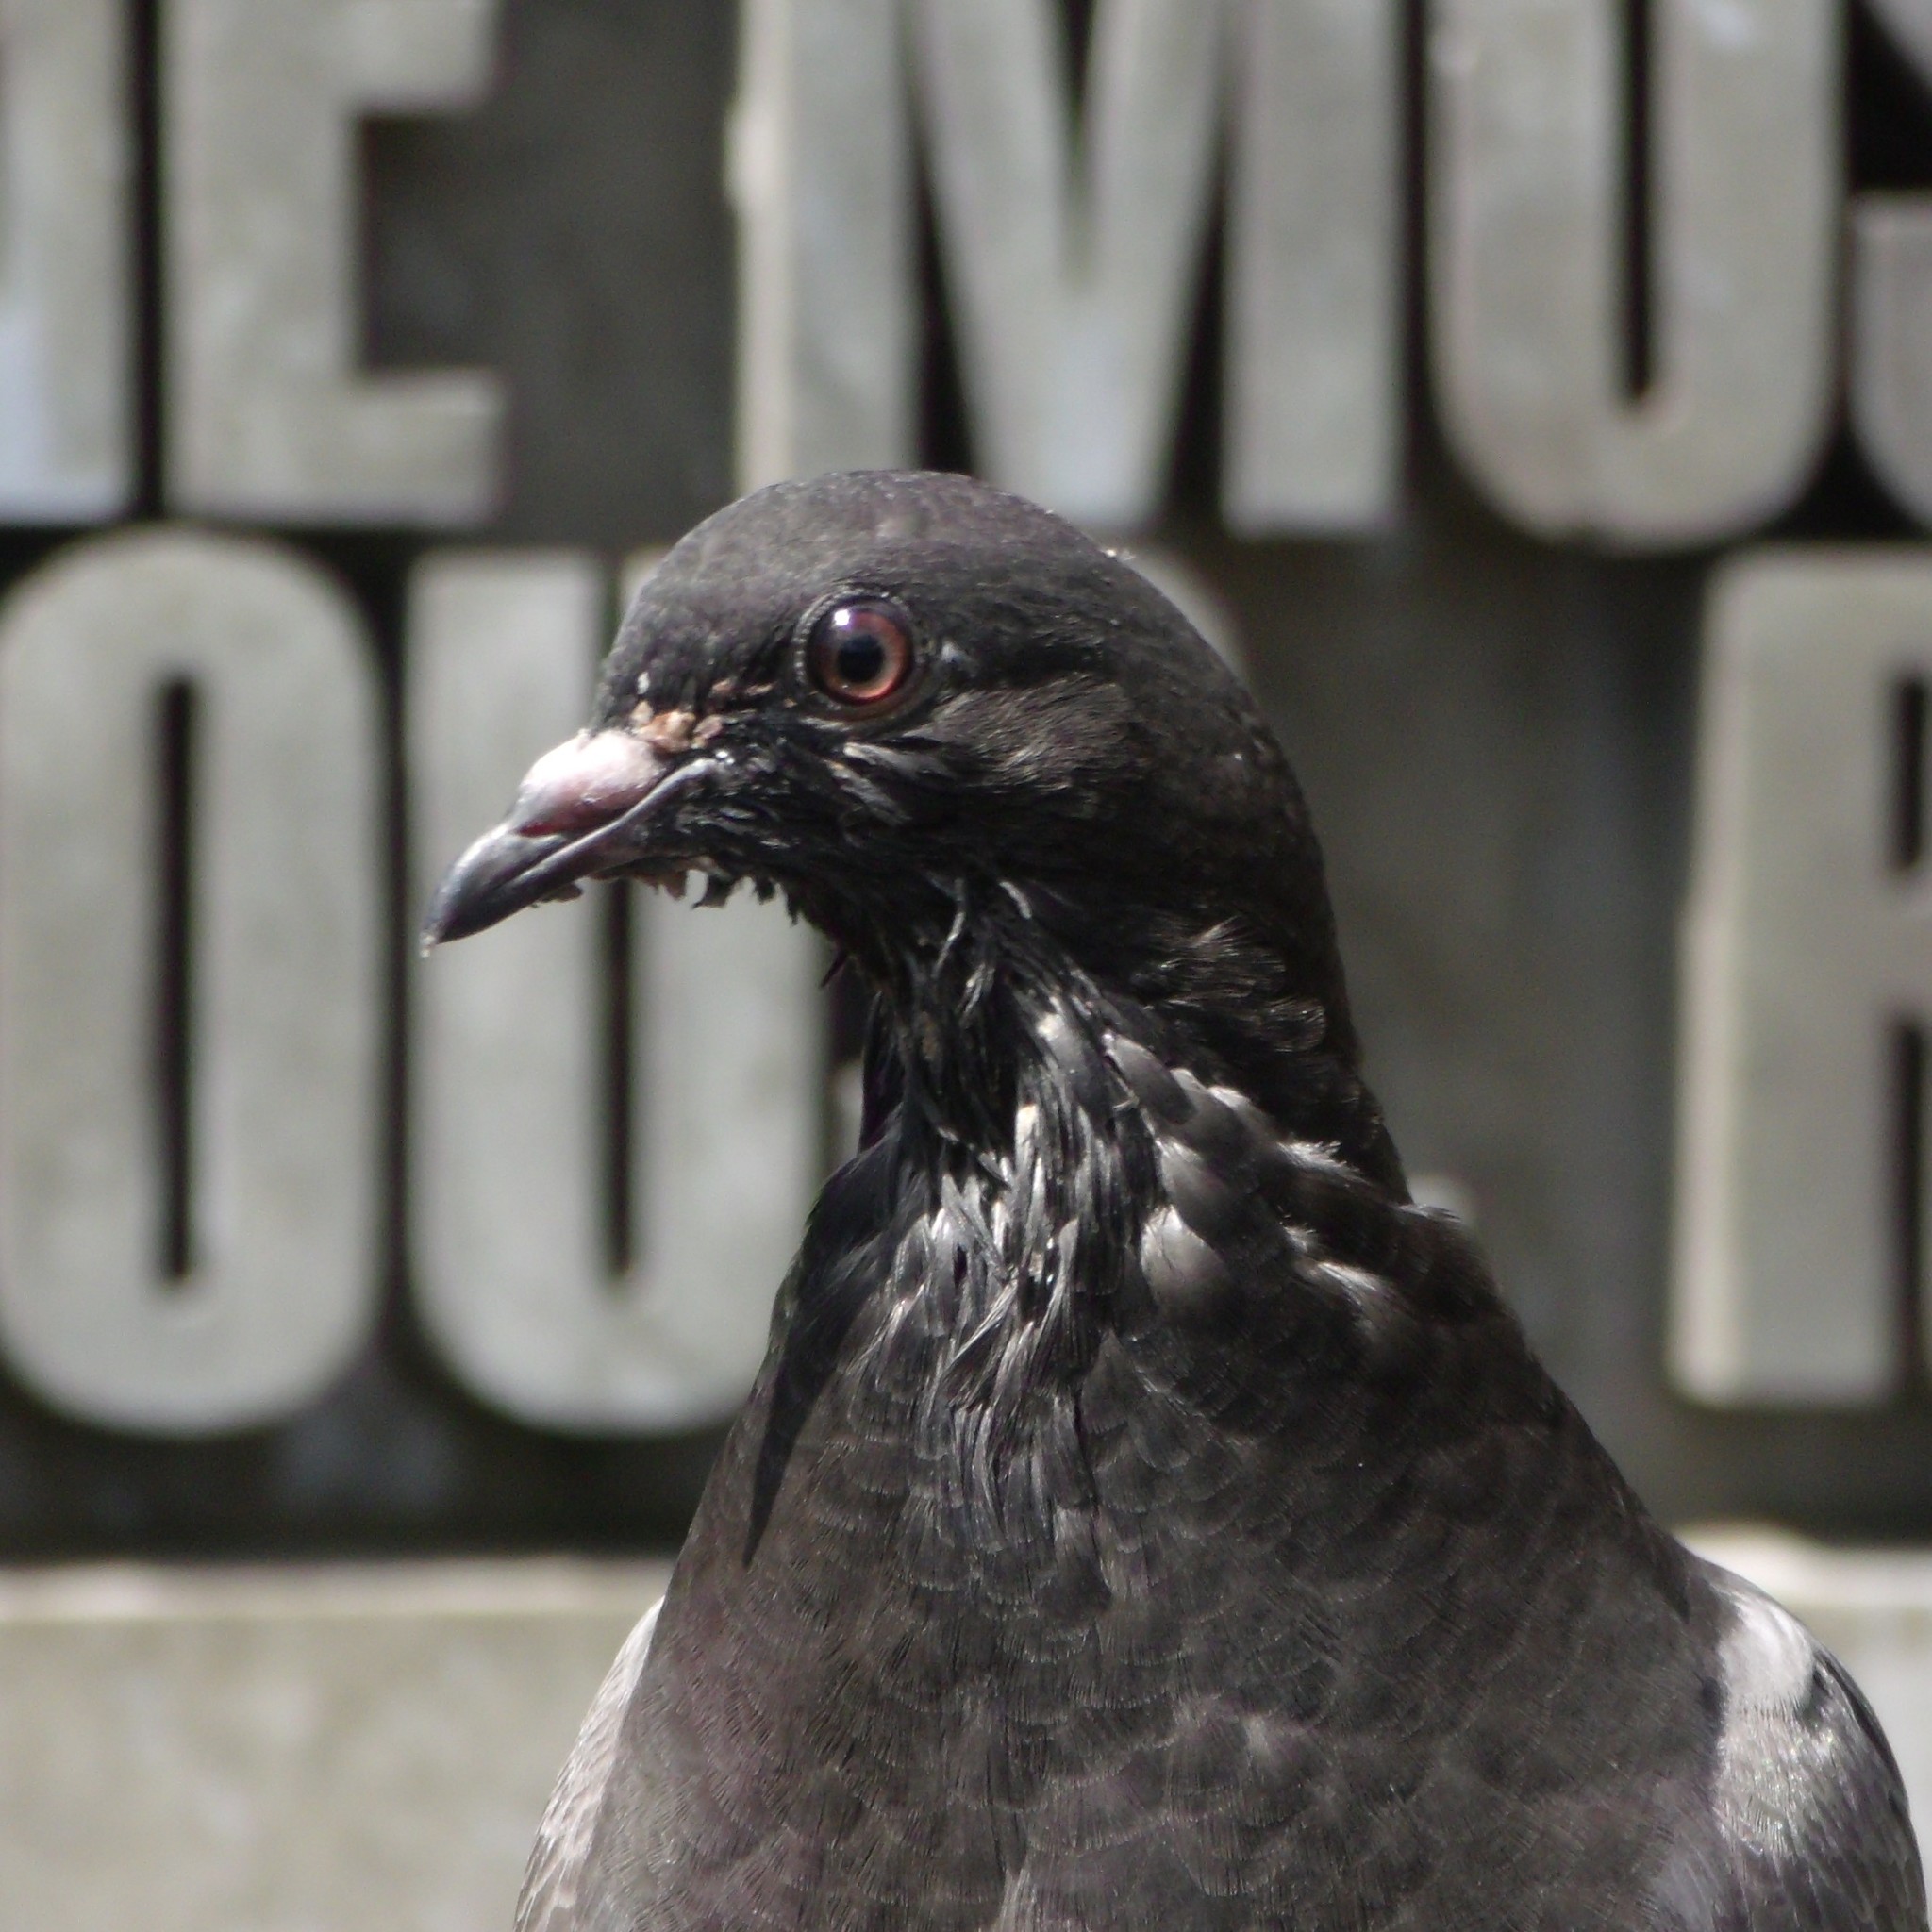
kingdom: Animalia
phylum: Chordata
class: Aves
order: Columbiformes
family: Columbidae
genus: Columba
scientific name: Columba livia
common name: Rock pigeon
